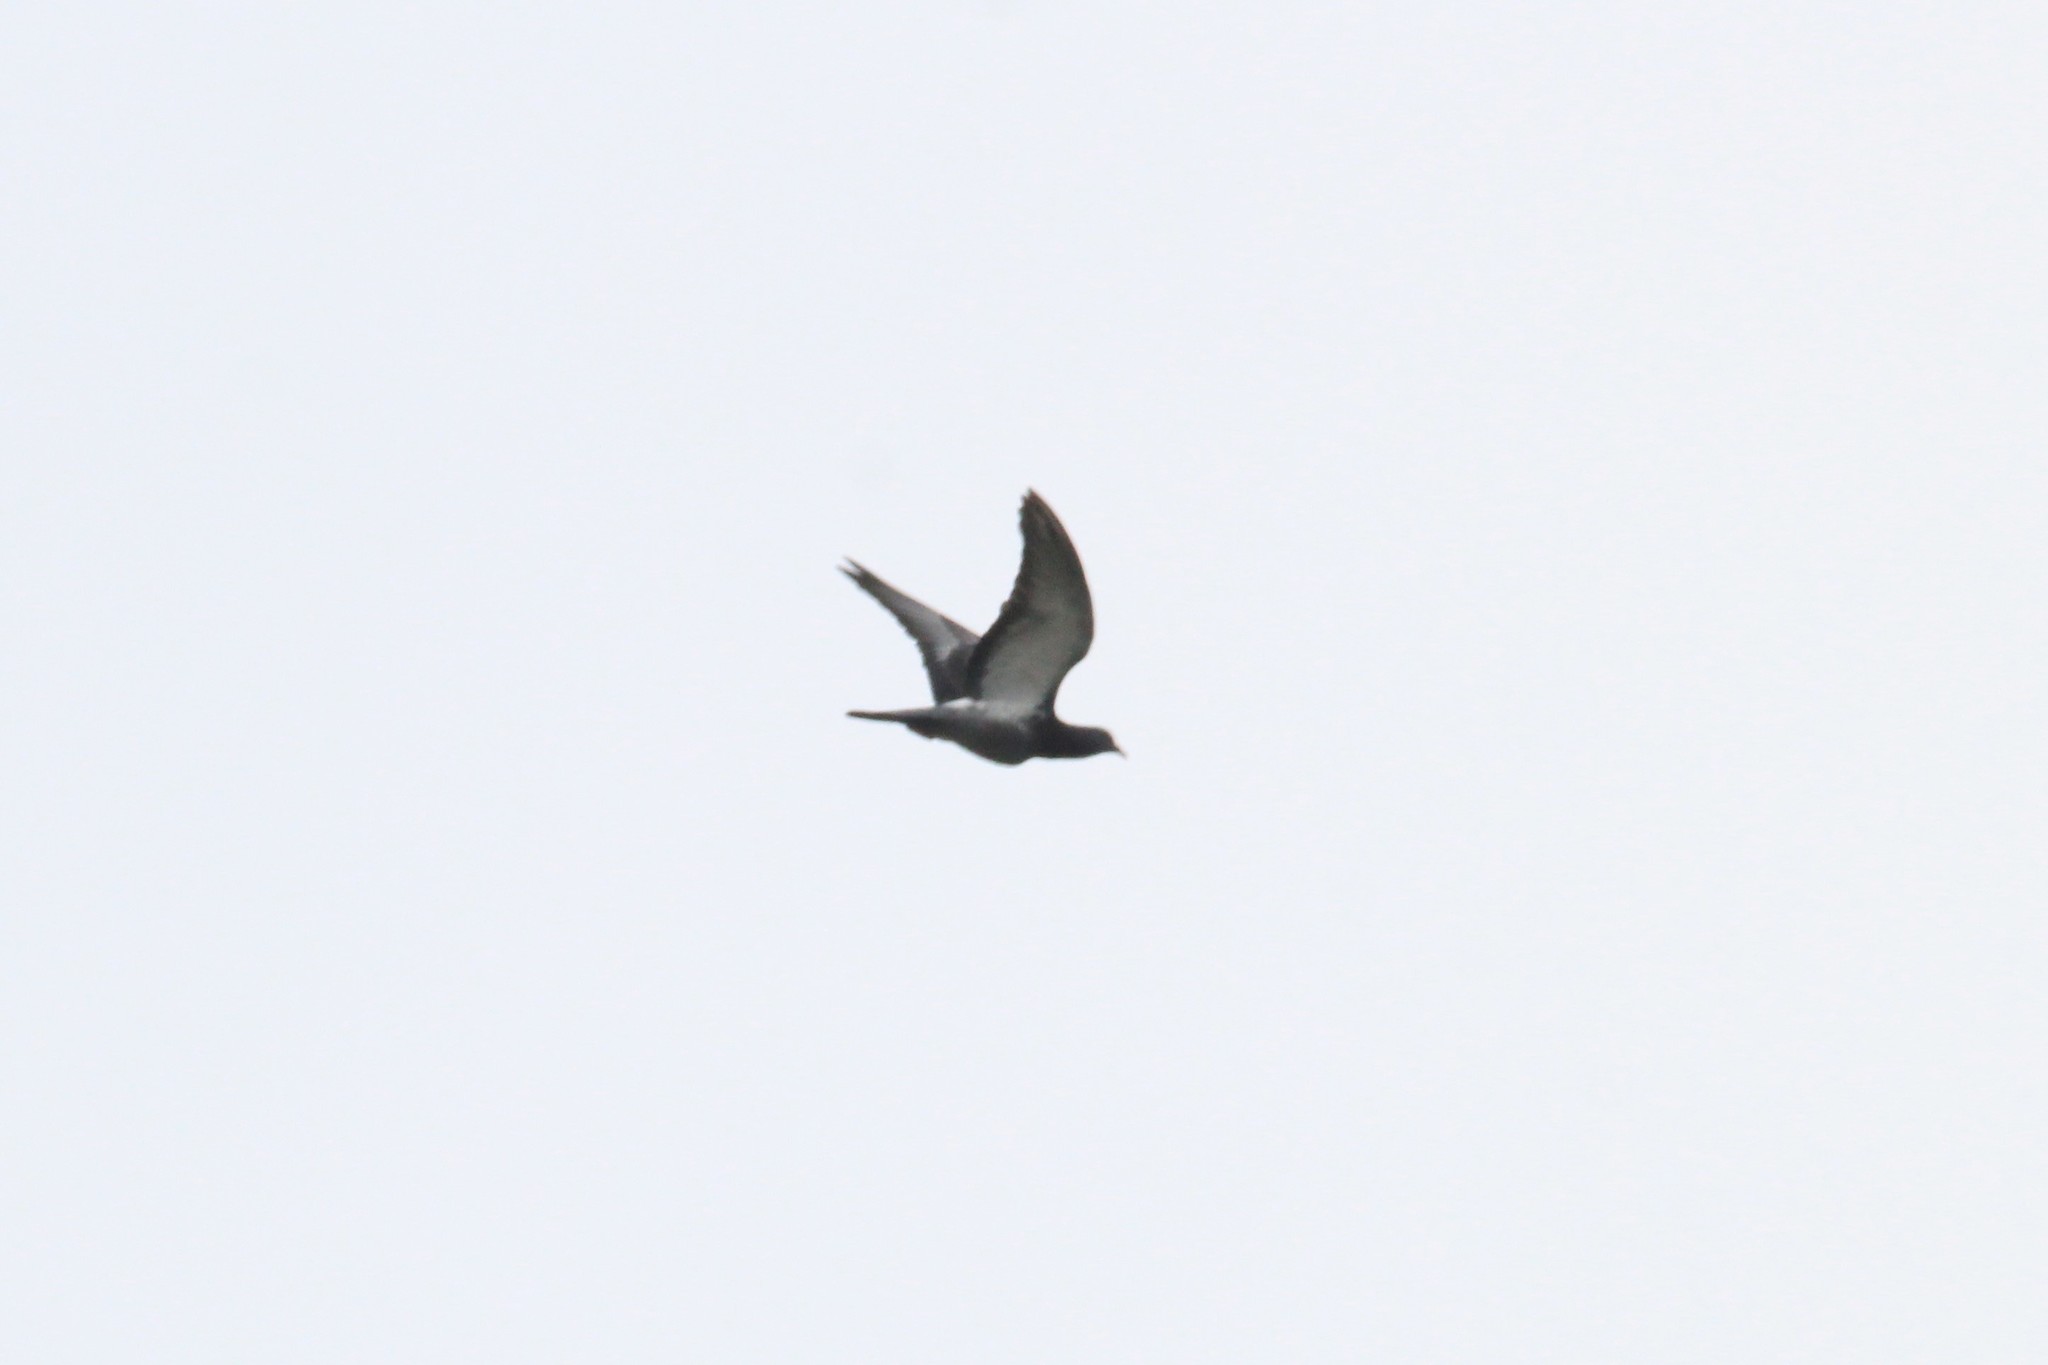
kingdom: Animalia
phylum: Chordata
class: Aves
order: Columbiformes
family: Columbidae
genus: Columba
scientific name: Columba livia
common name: Rock pigeon
